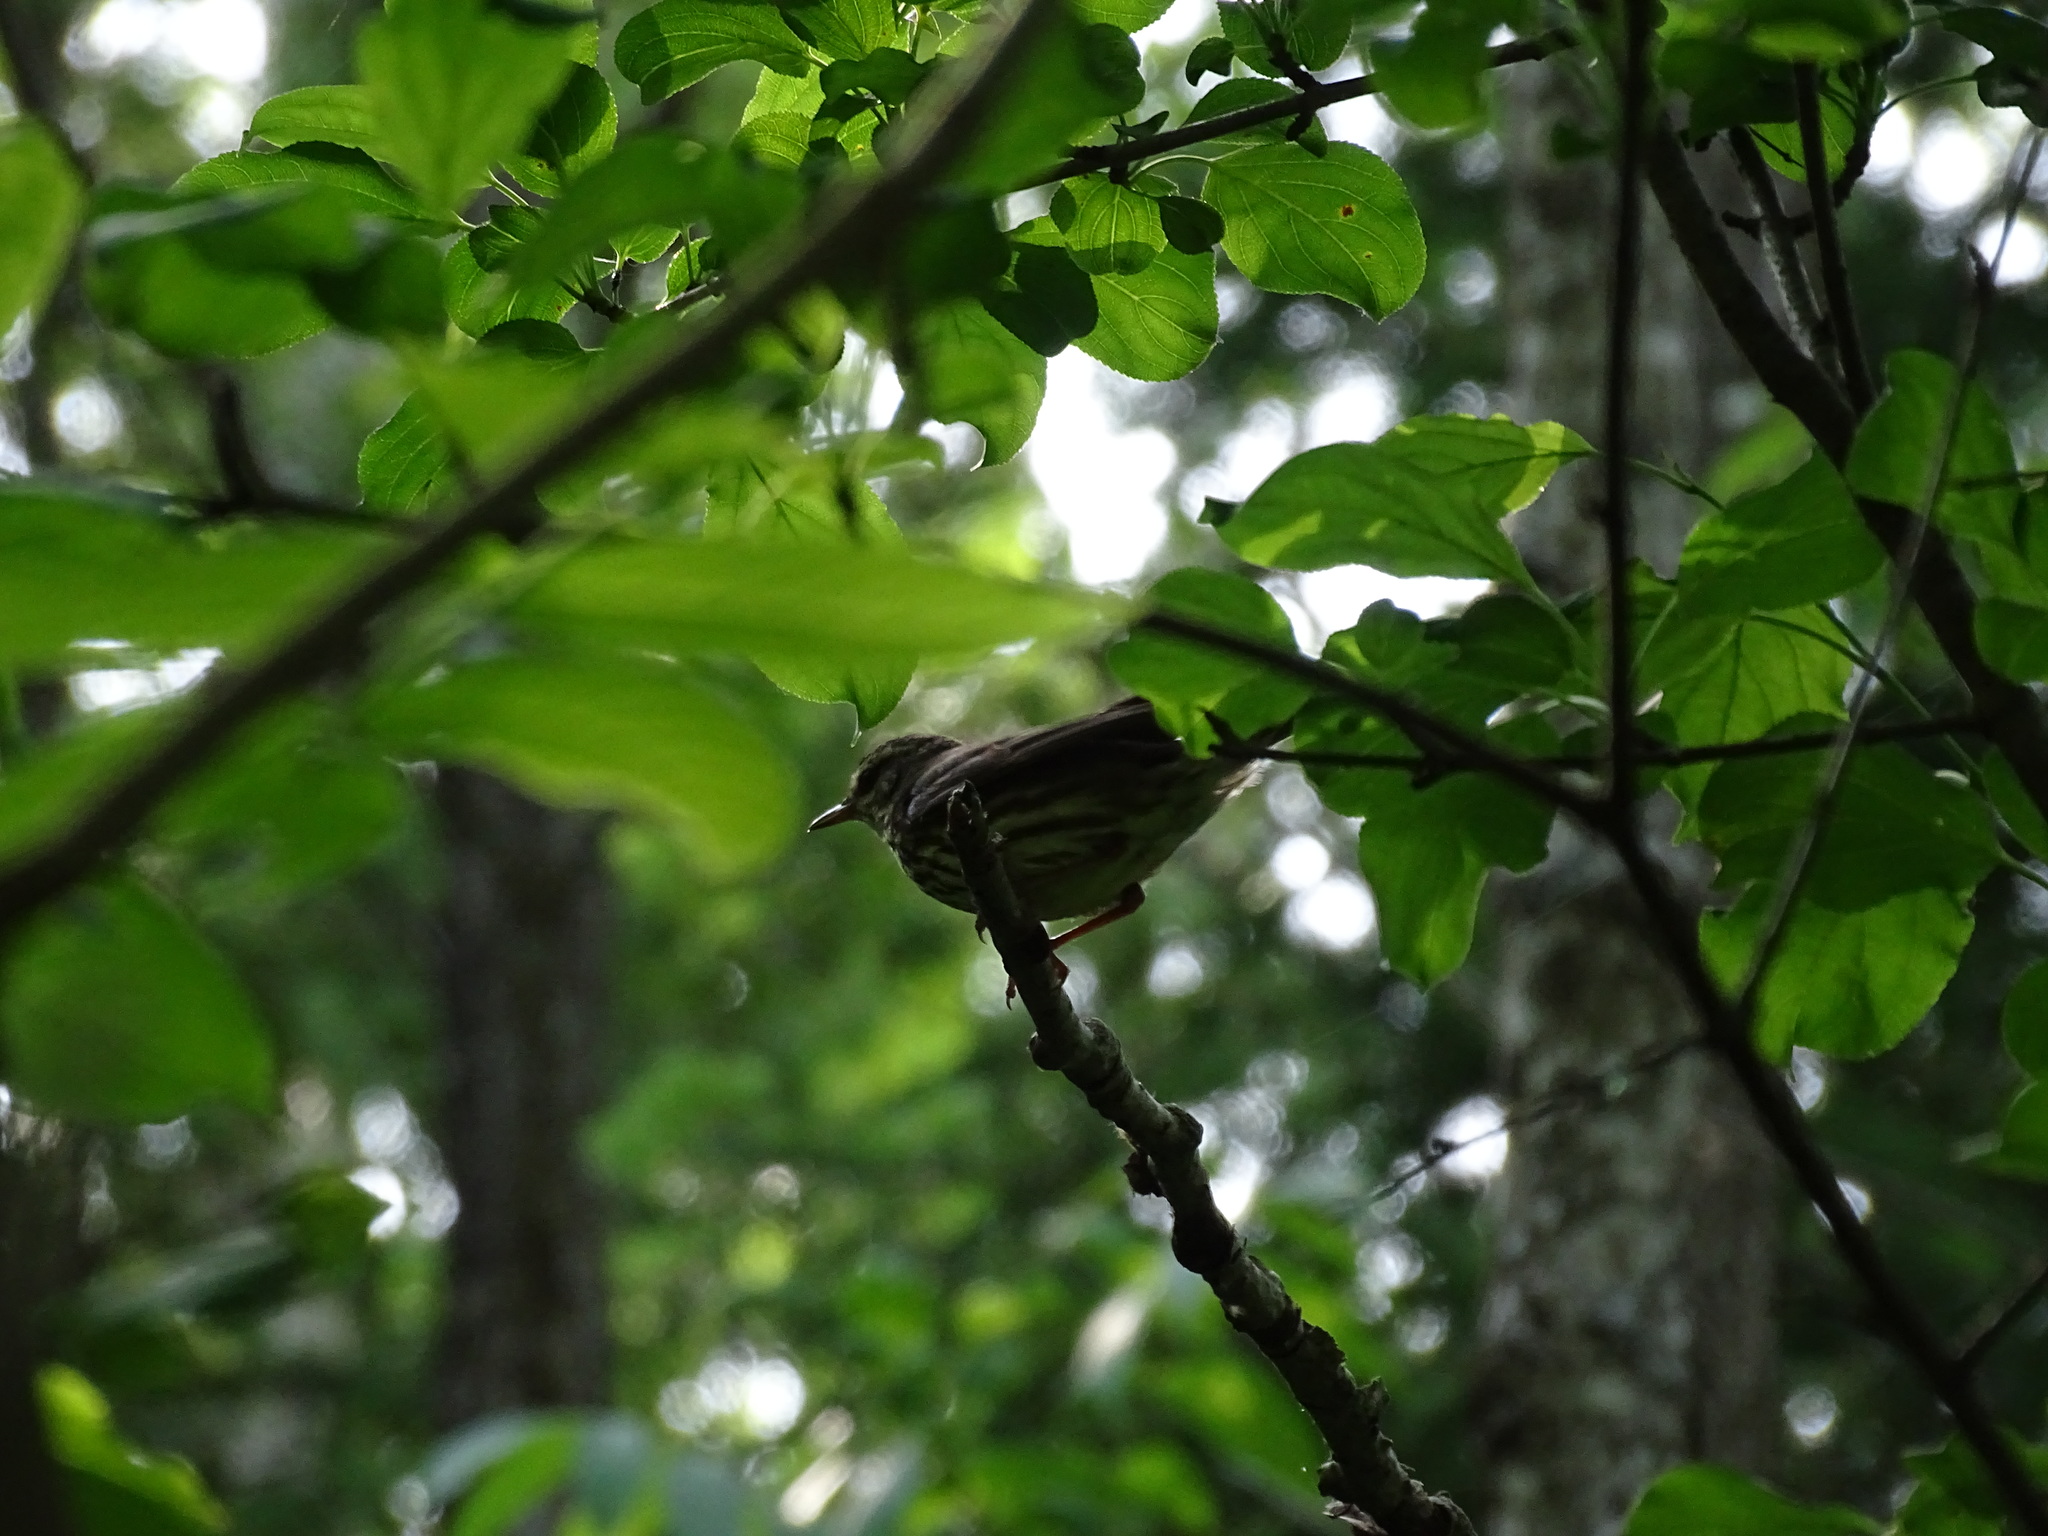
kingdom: Animalia
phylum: Chordata
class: Aves
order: Passeriformes
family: Parulidae
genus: Parkesia
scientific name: Parkesia noveboracensis
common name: Northern waterthrush
